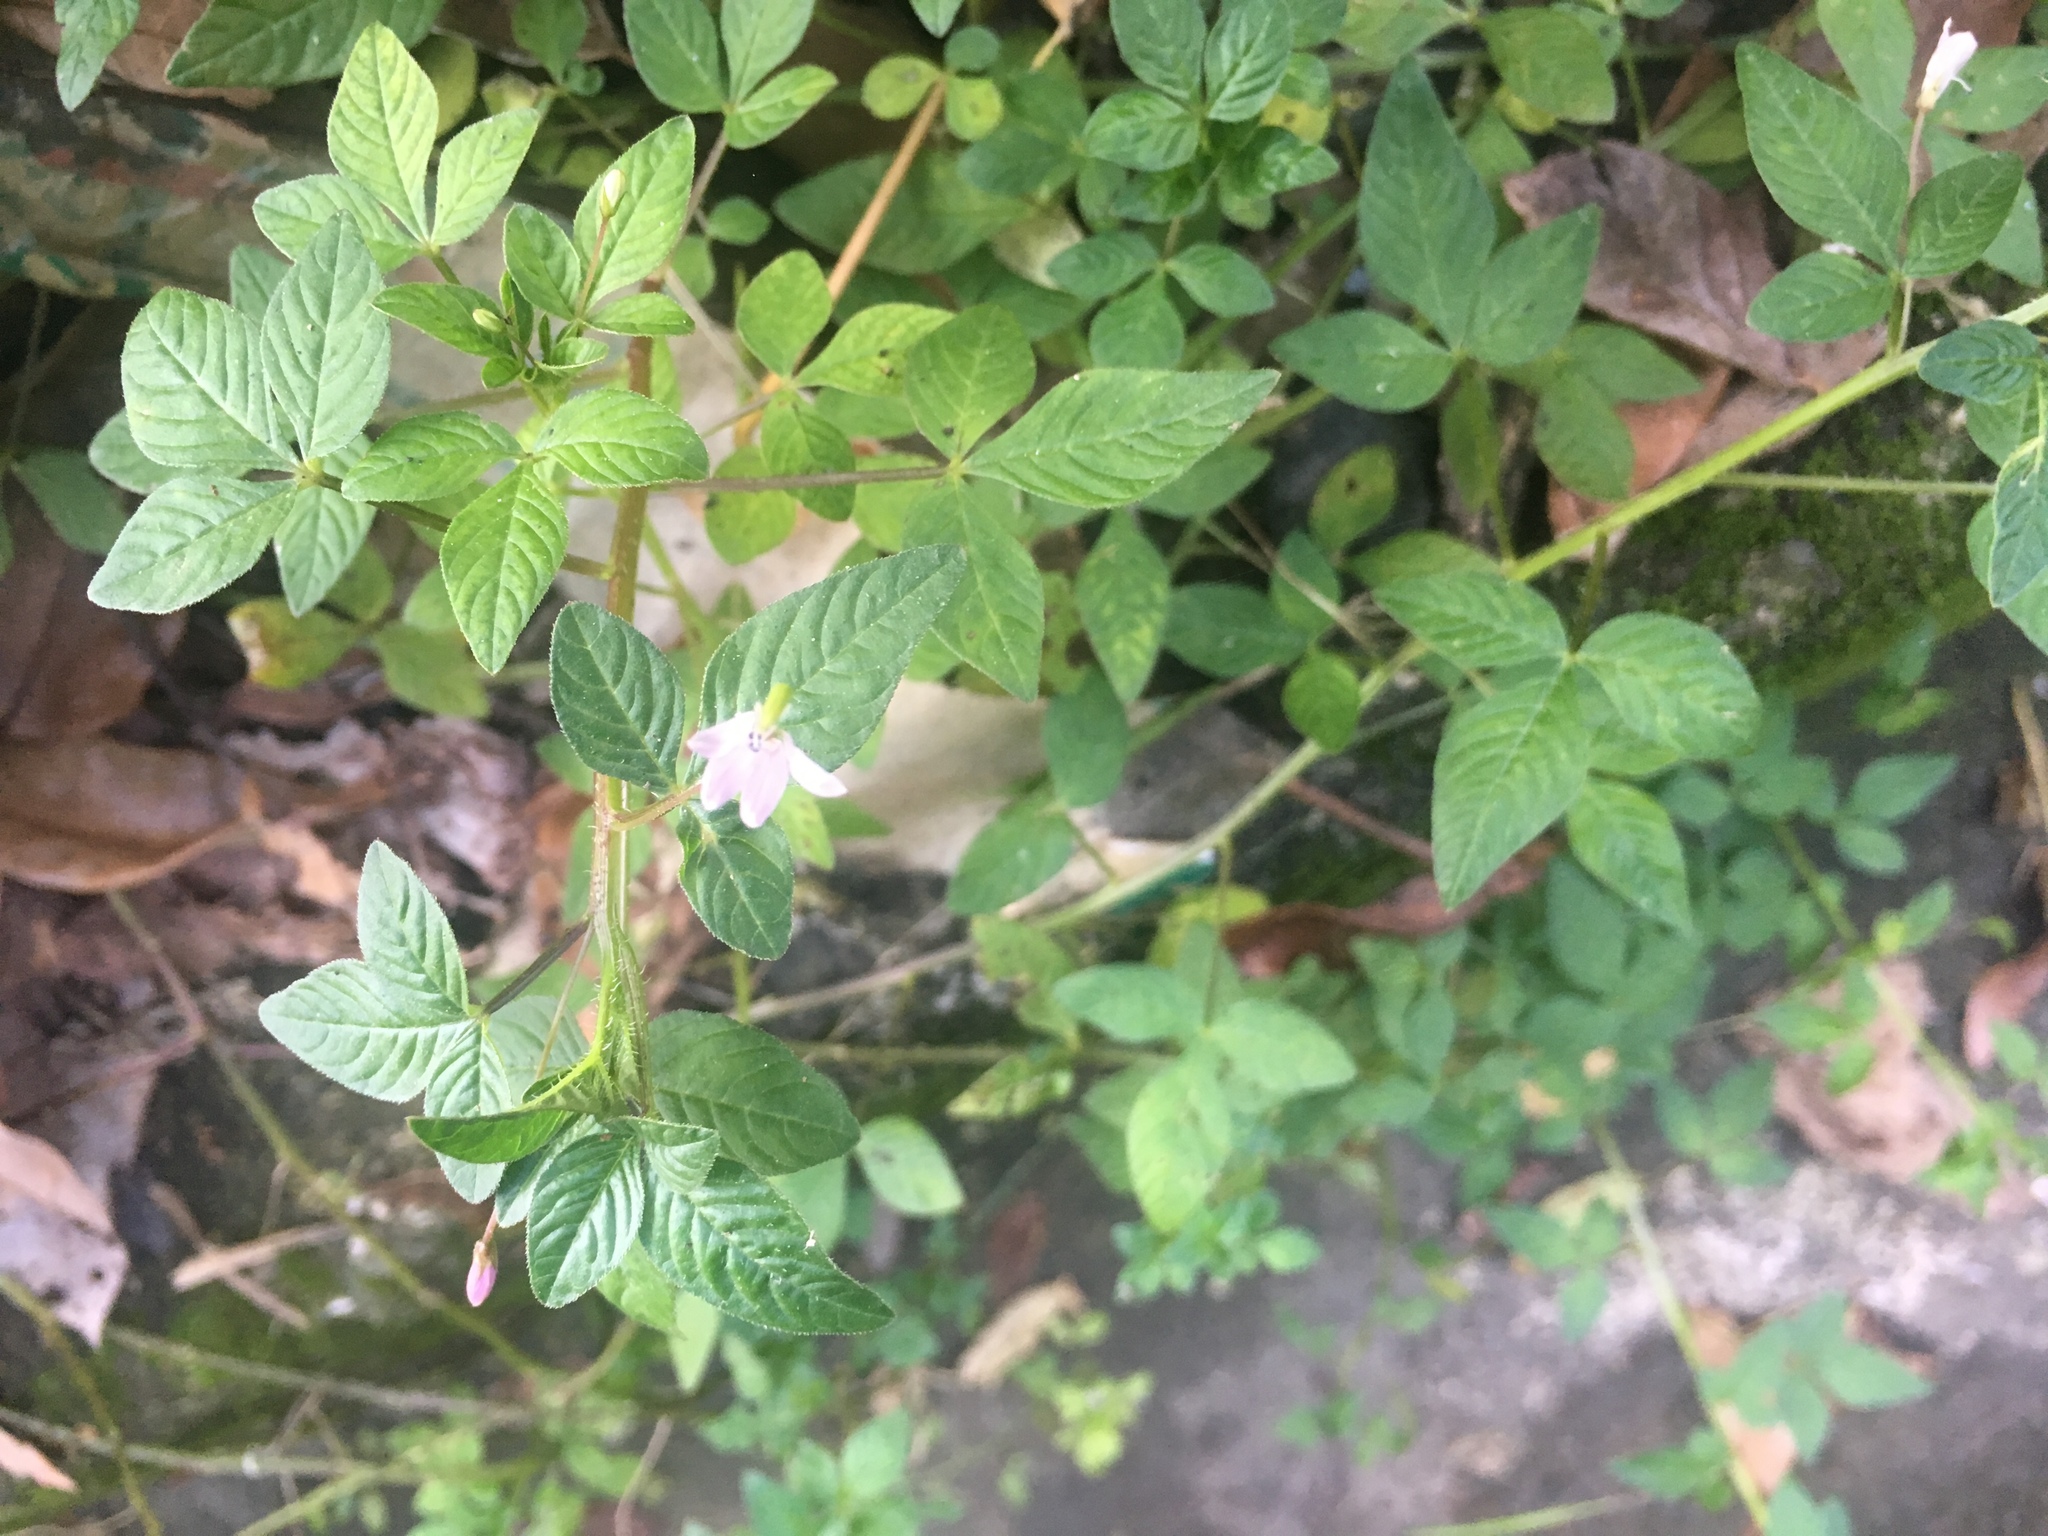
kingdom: Plantae
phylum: Tracheophyta
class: Magnoliopsida
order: Brassicales
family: Cleomaceae
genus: Sieruela
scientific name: Sieruela rutidosperma
